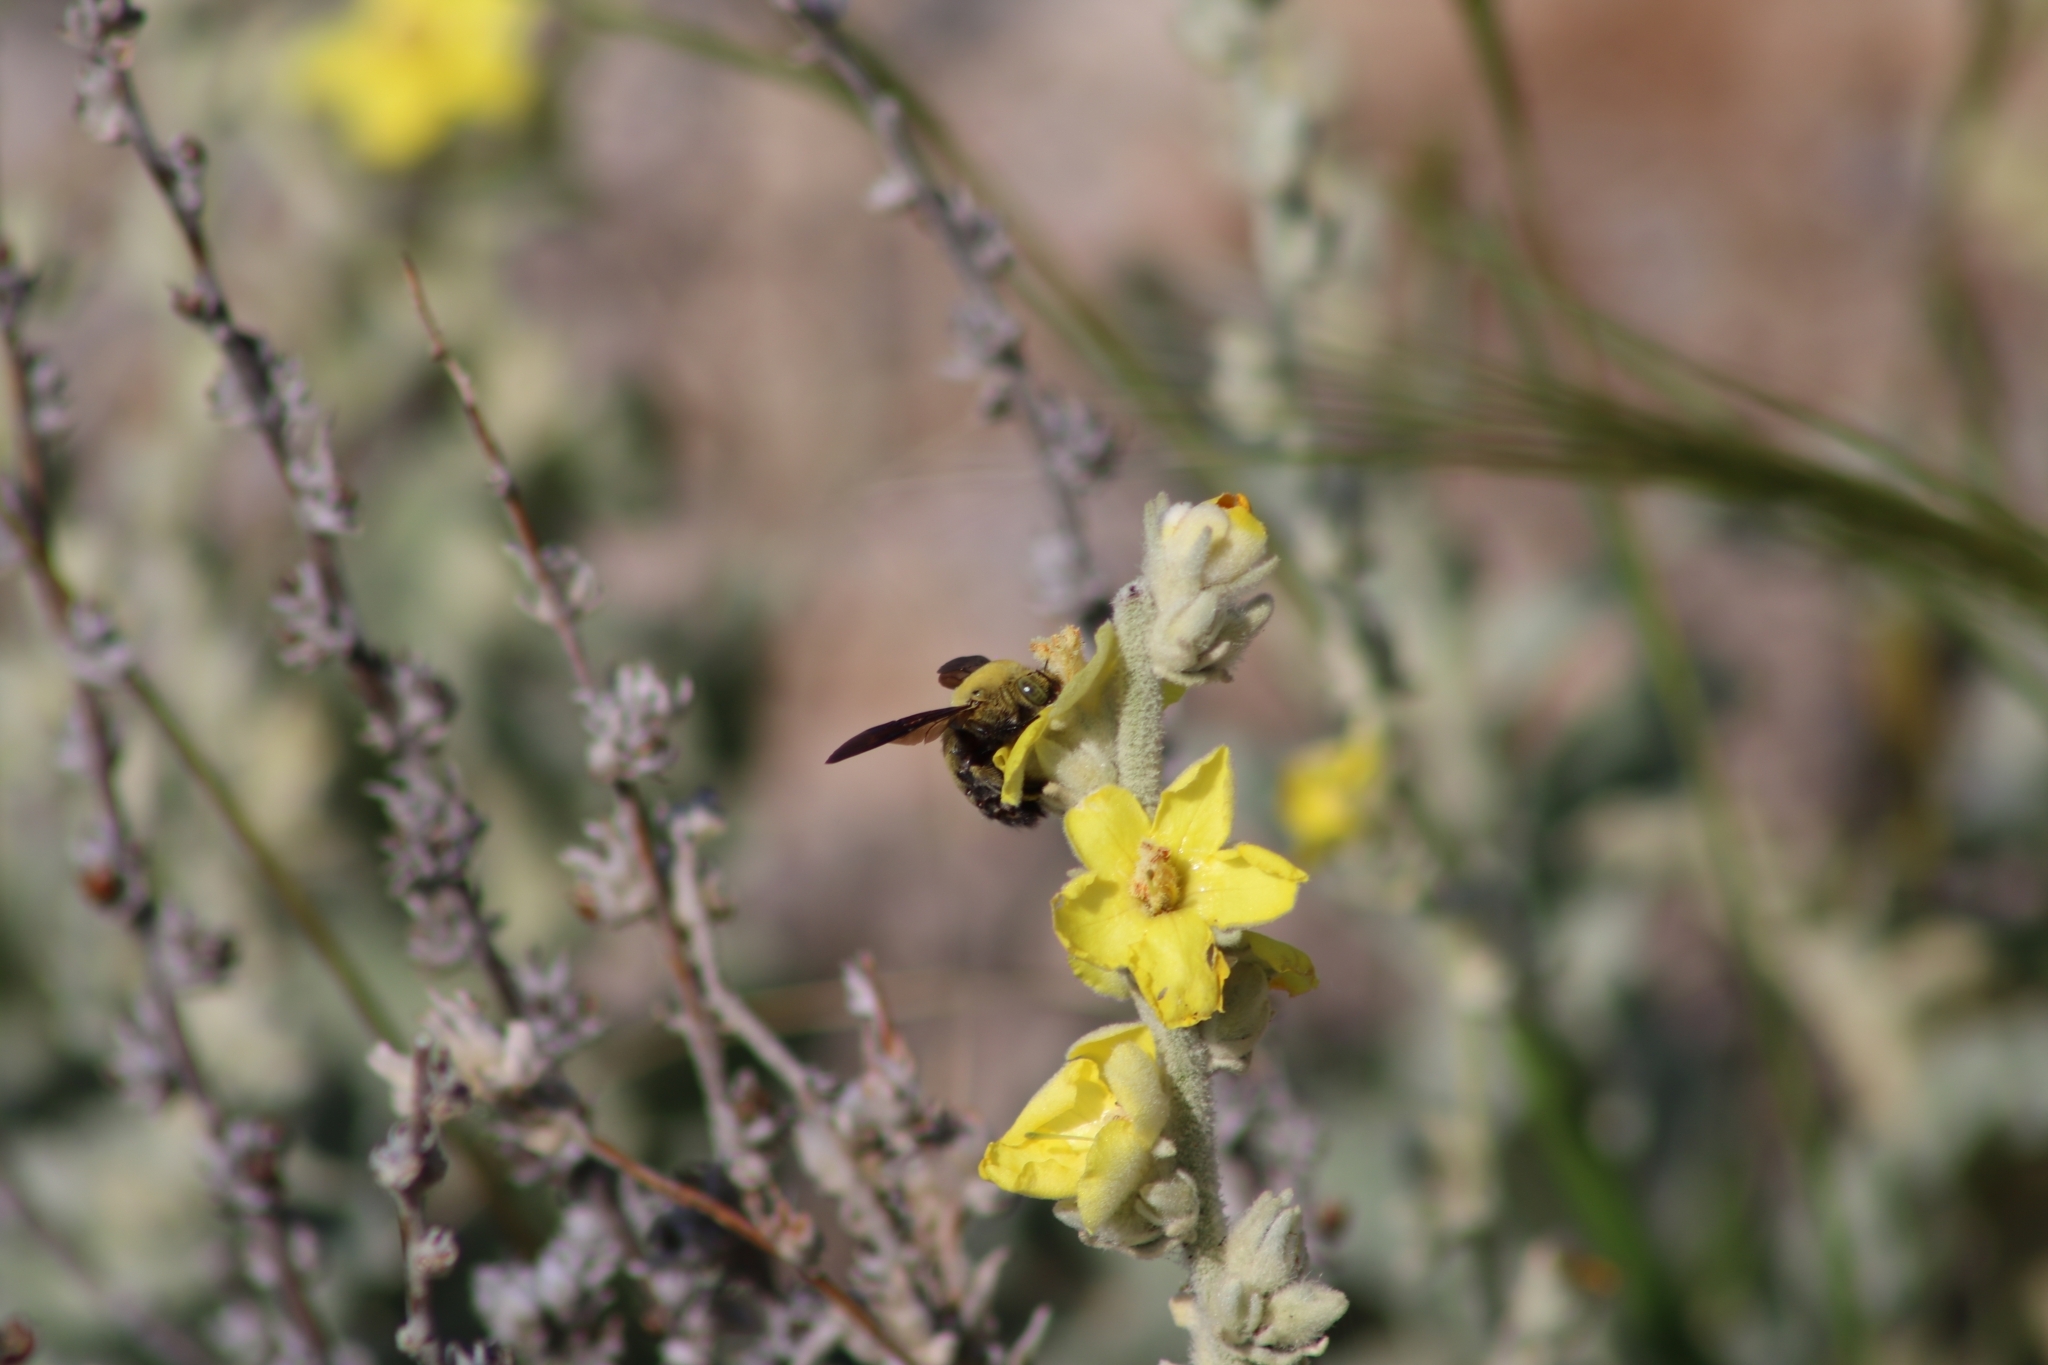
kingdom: Animalia
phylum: Arthropoda
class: Insecta
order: Hymenoptera
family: Apidae
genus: Xylocopa
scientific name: Xylocopa pubescens
